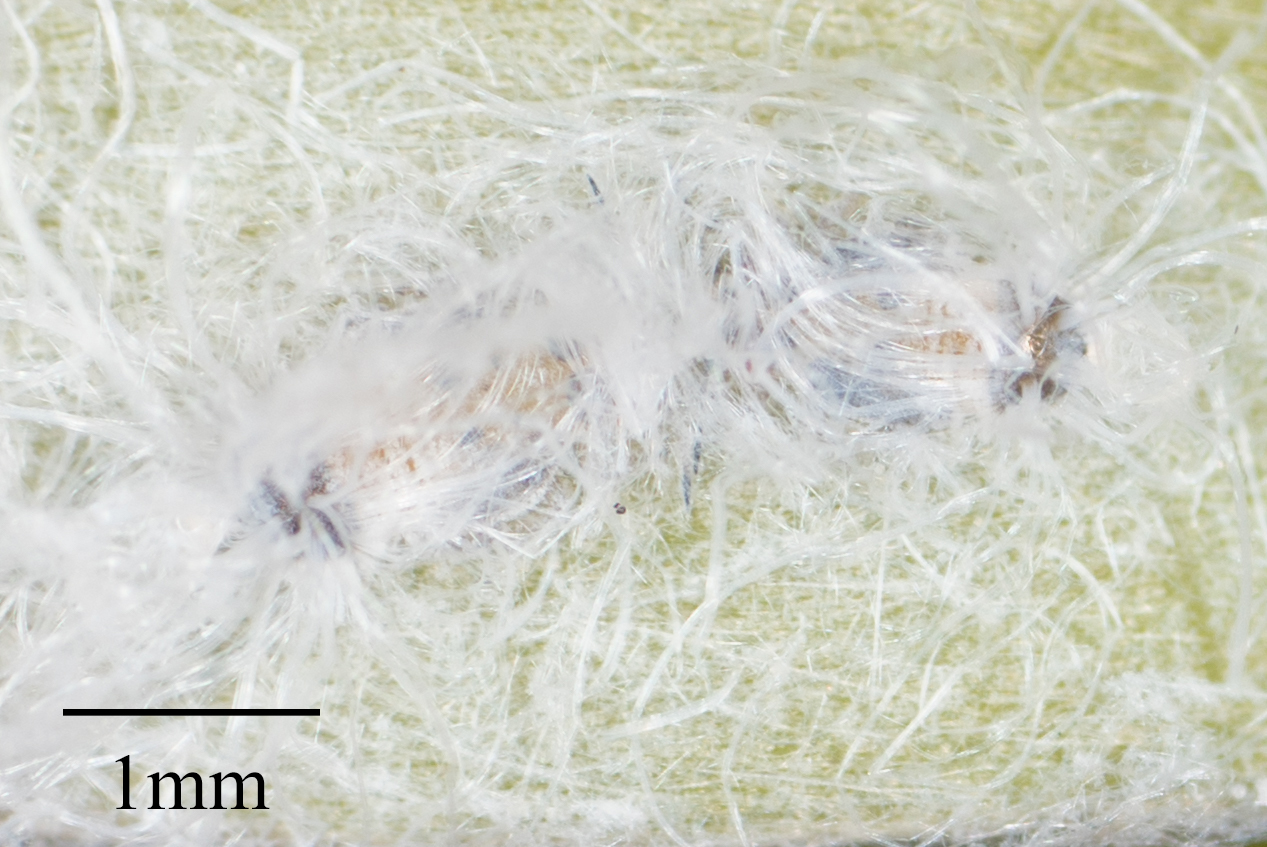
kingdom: Animalia
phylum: Arthropoda
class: Insecta
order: Hemiptera
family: Aphalaridae
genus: Boreioglycaspis
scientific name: Boreioglycaspis melaleucae
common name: Psyllid
